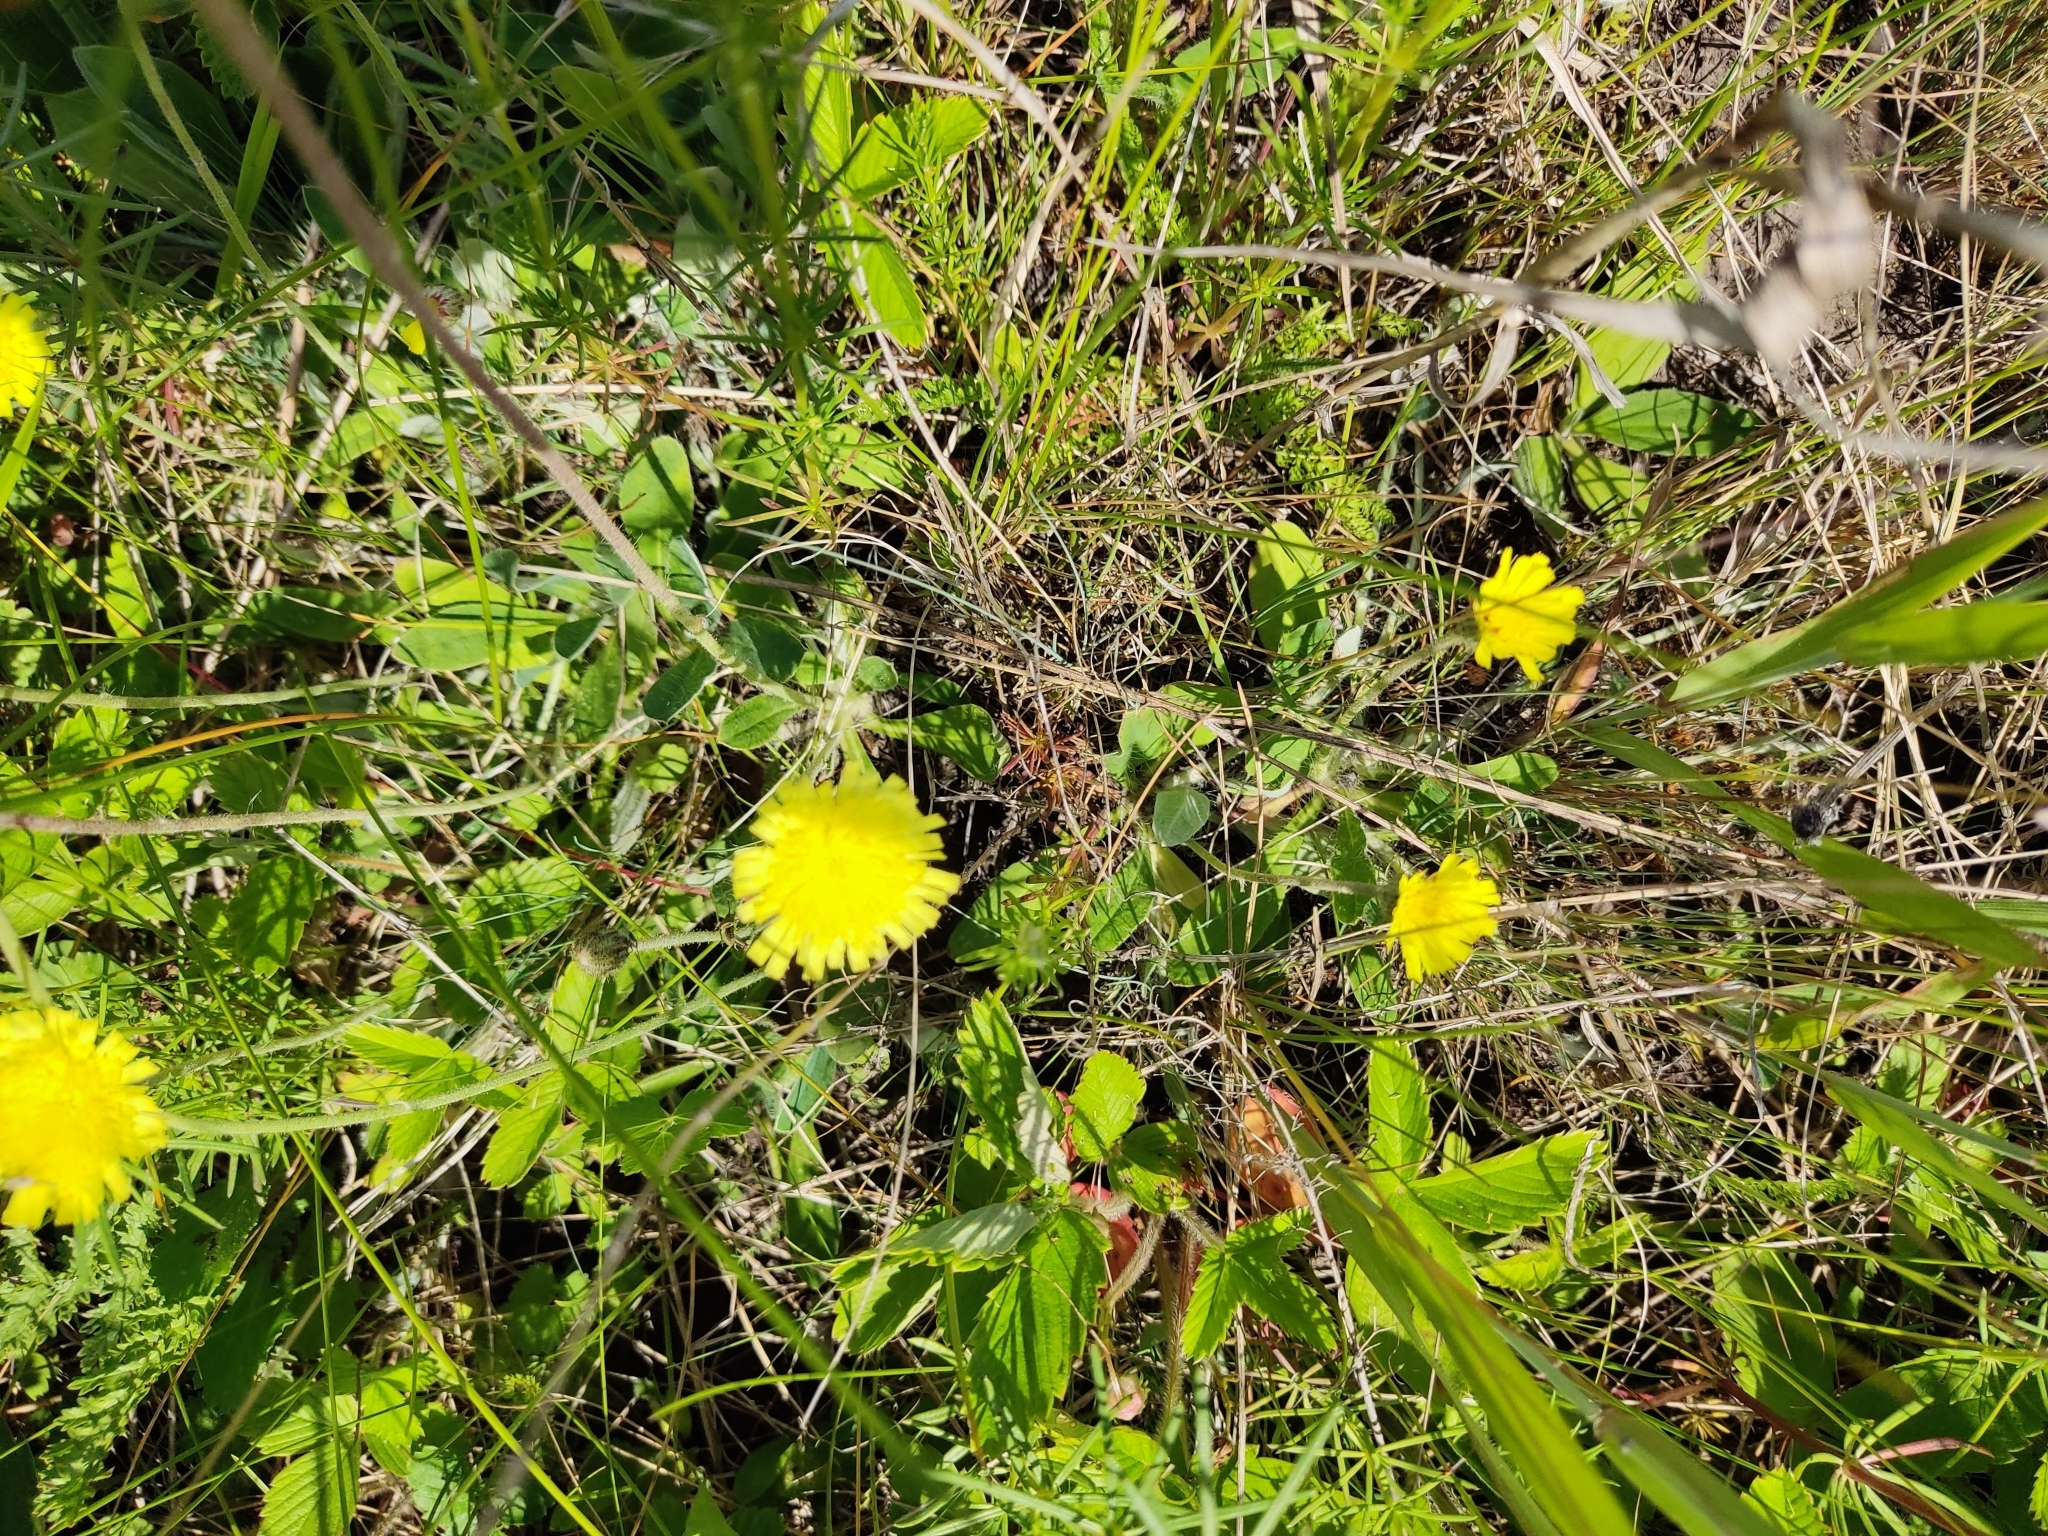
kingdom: Plantae
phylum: Tracheophyta
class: Magnoliopsida
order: Asterales
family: Asteraceae
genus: Pilosella
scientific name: Pilosella officinarum
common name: Mouse-ear hawkweed
